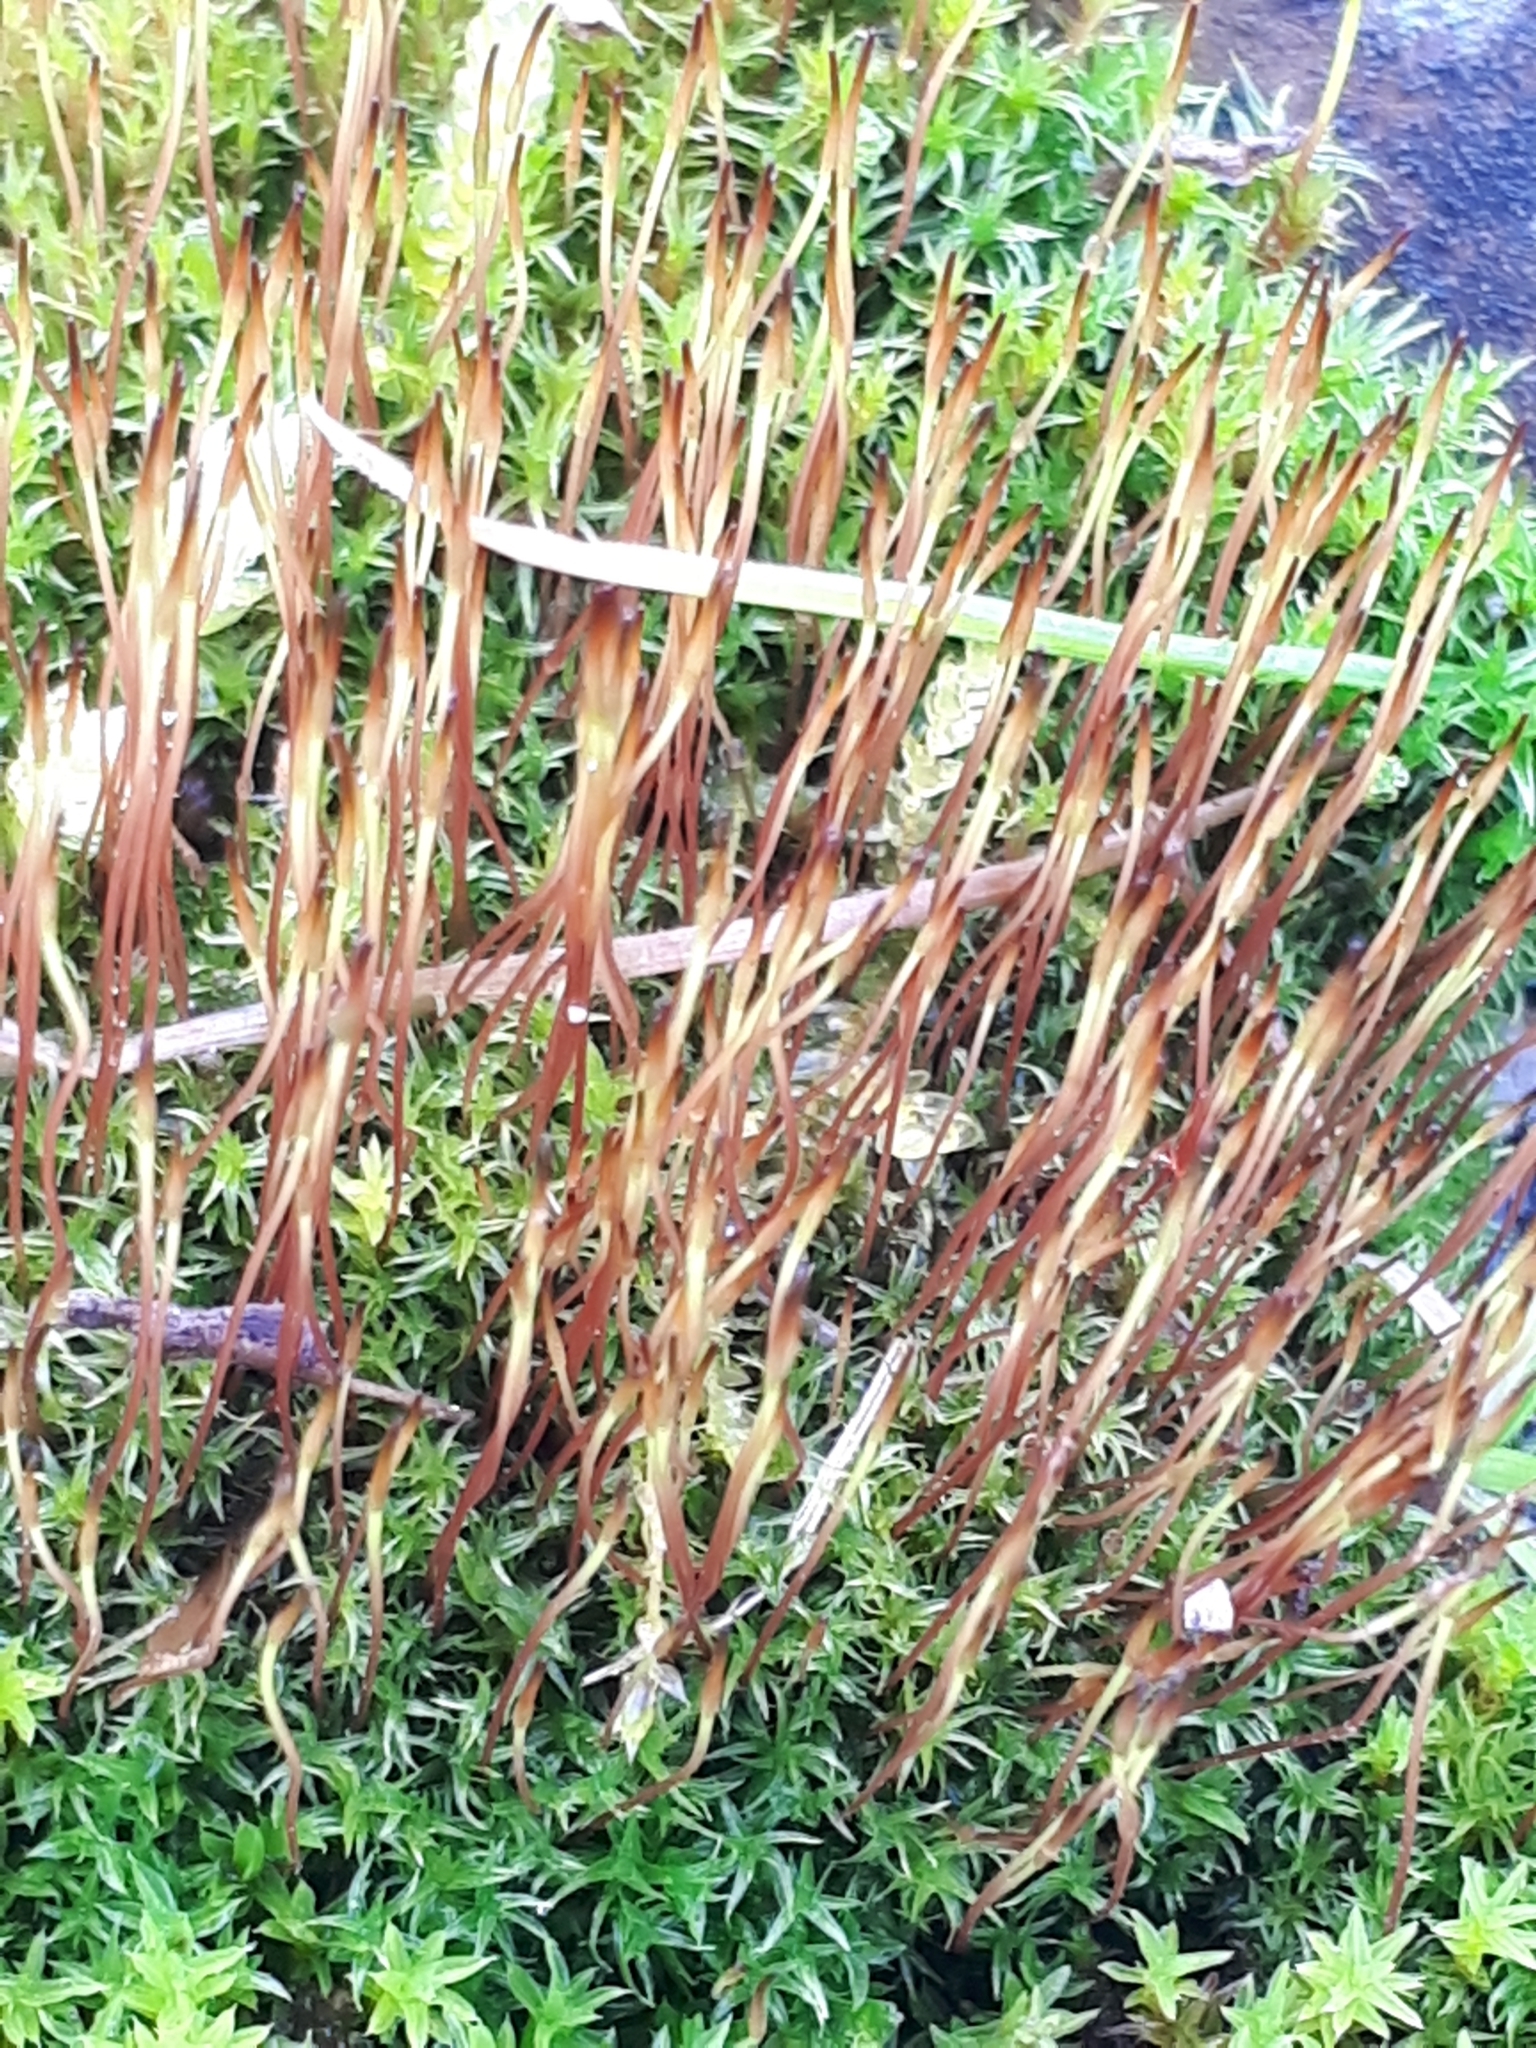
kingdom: Plantae
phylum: Bryophyta
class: Bryopsida
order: Dicranales
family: Ditrichaceae
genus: Ceratodon
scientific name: Ceratodon purpureus
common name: Redshank
